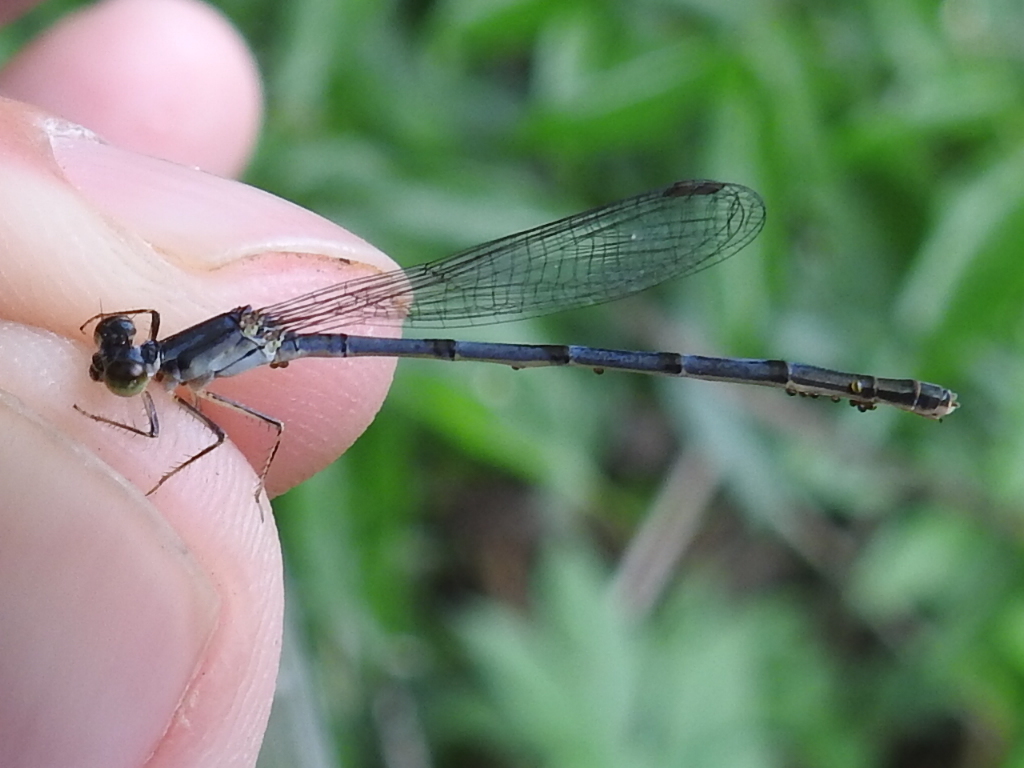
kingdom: Animalia
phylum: Arthropoda
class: Insecta
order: Odonata
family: Coenagrionidae
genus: Ischnura
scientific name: Ischnura posita
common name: Fragile forktail
